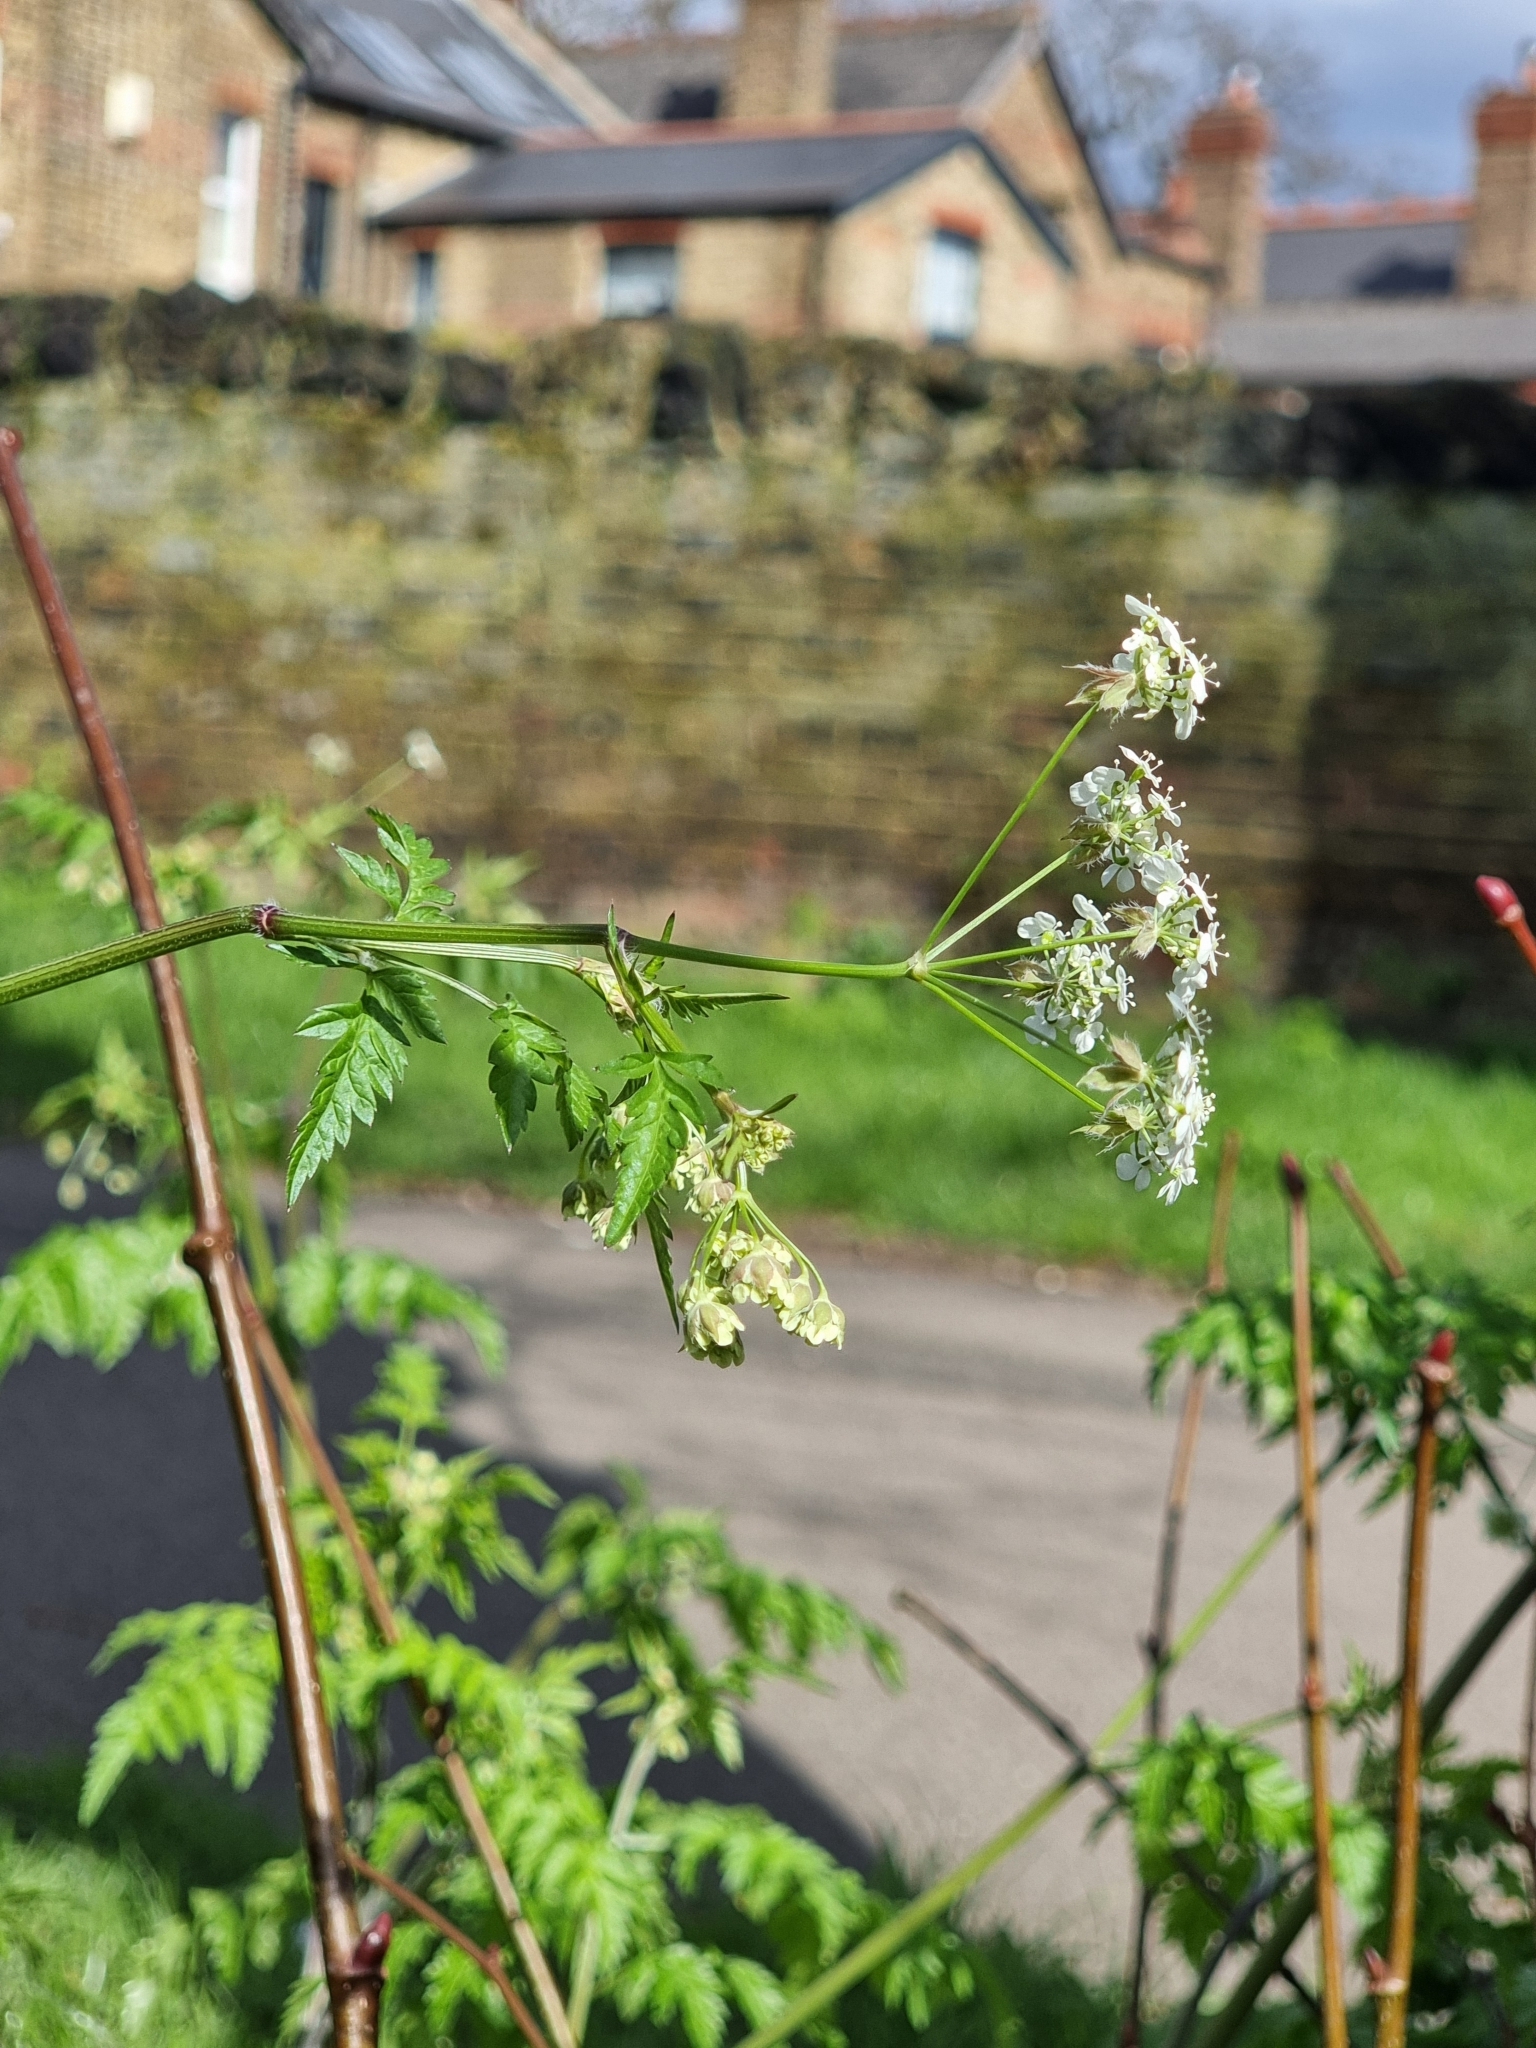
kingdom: Plantae
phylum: Tracheophyta
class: Magnoliopsida
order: Apiales
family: Apiaceae
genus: Anthriscus
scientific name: Anthriscus sylvestris
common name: Cow parsley
